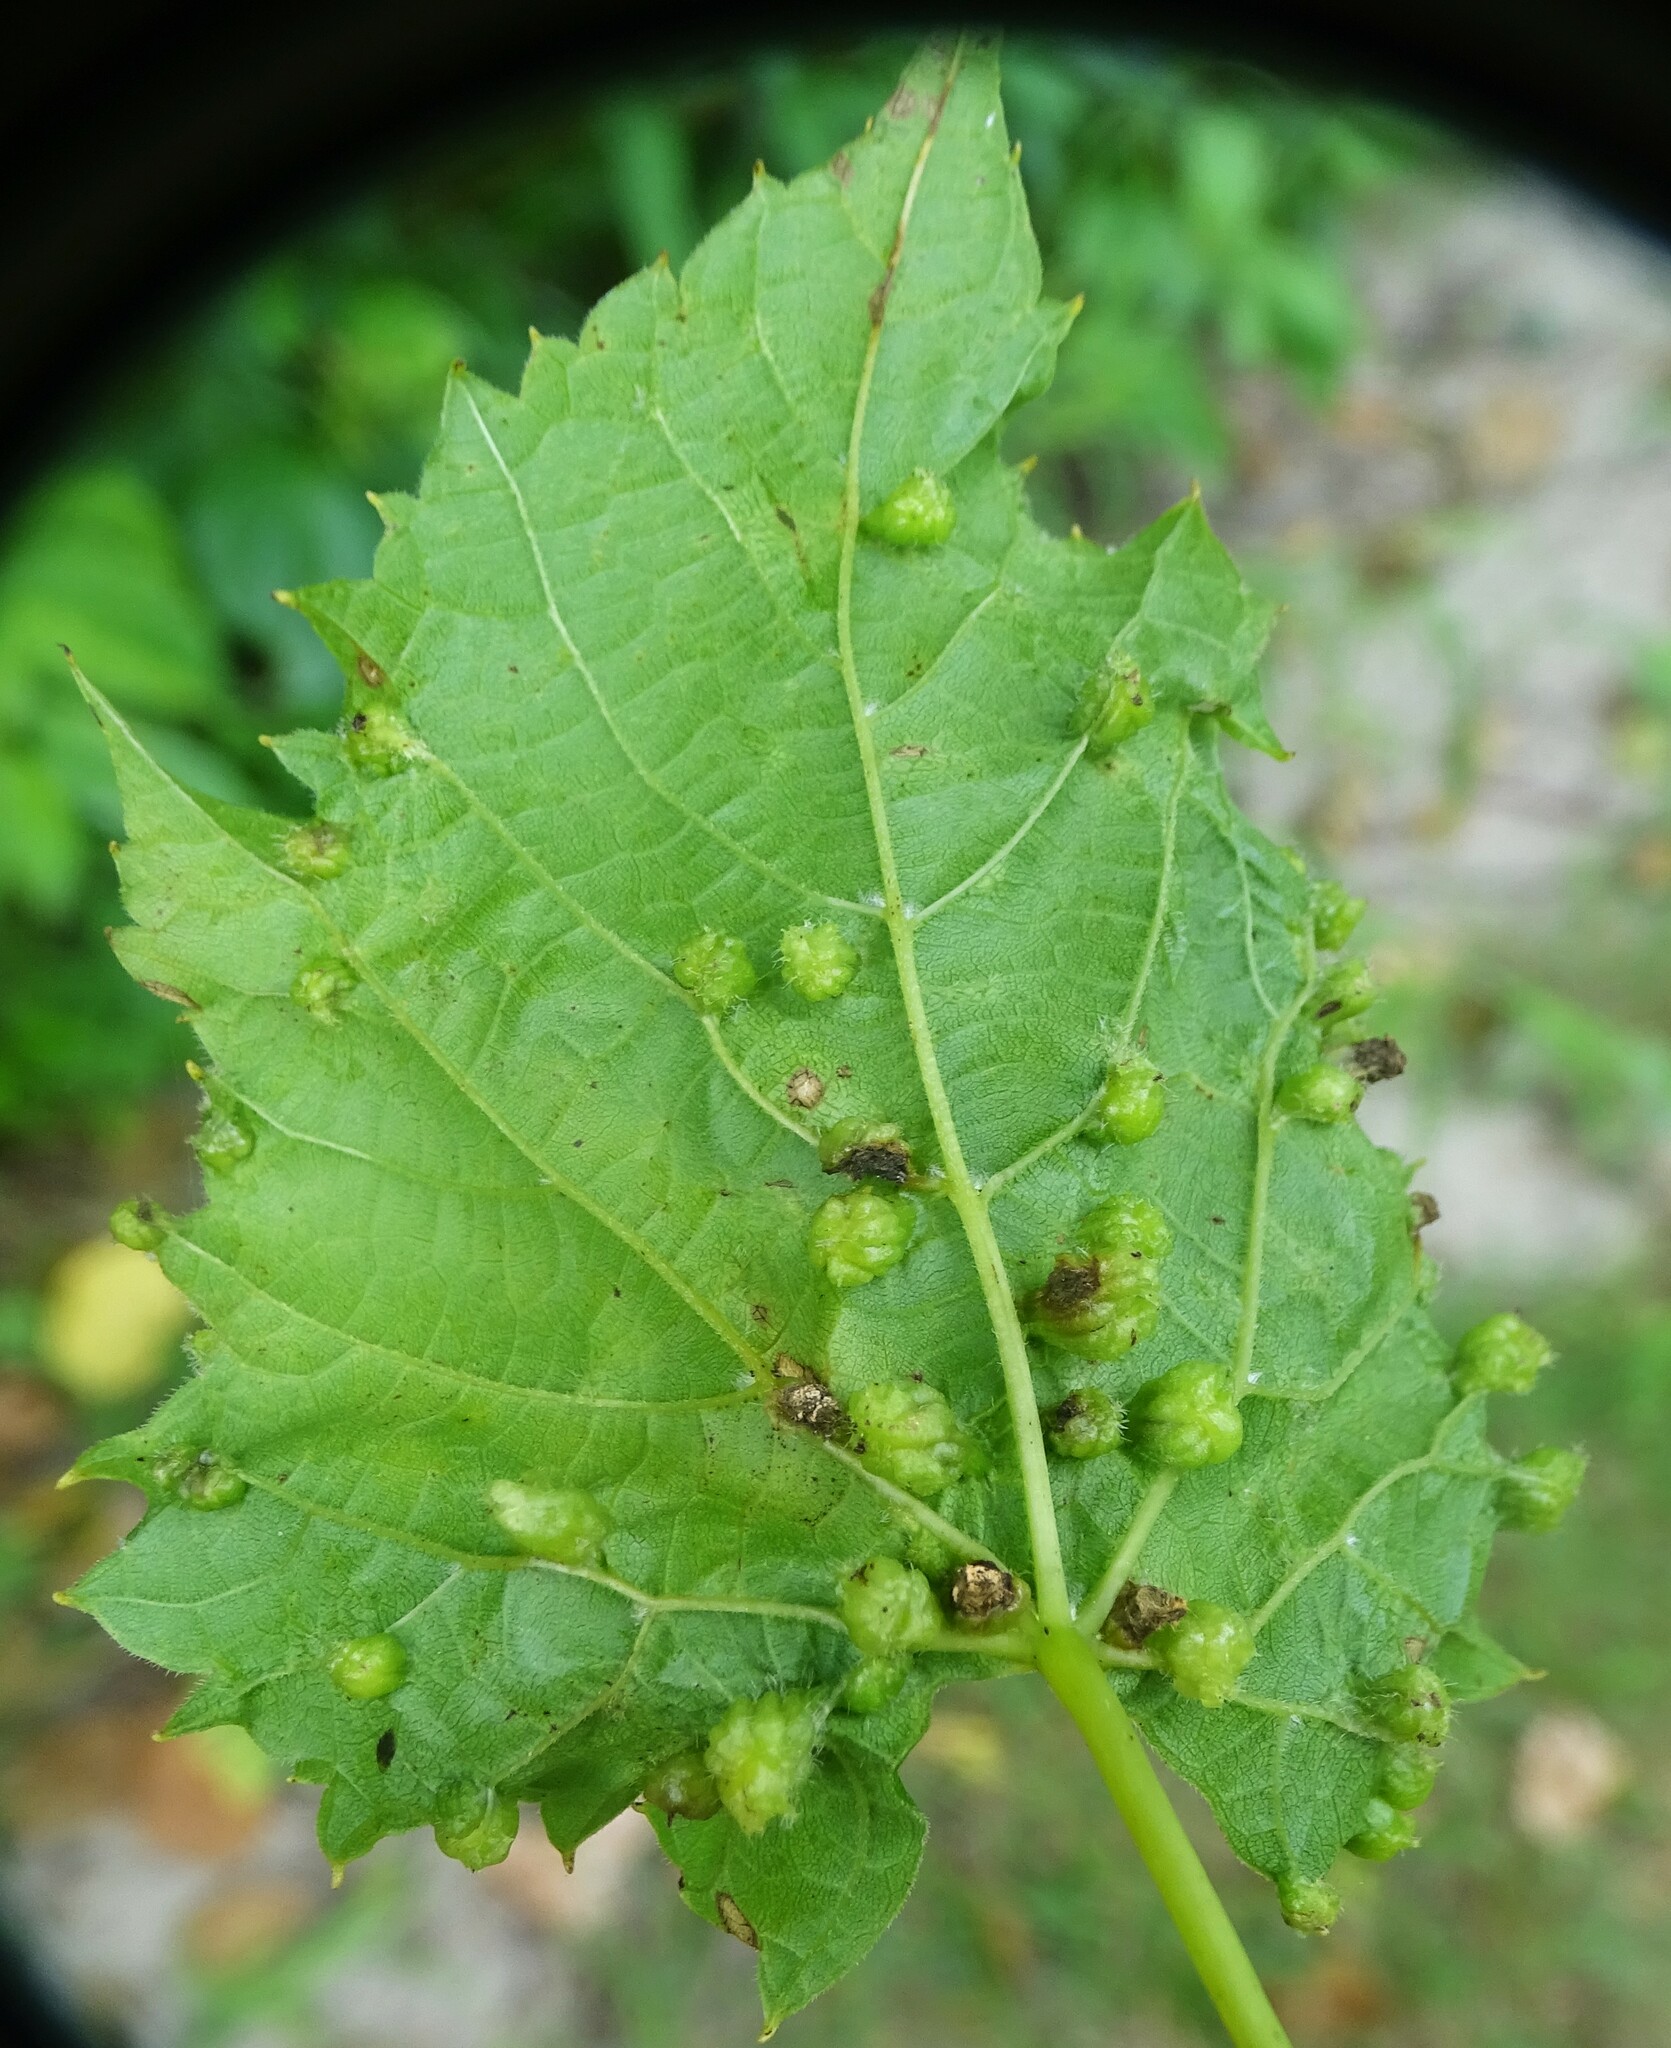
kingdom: Animalia
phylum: Arthropoda
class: Insecta
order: Hemiptera
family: Phylloxeridae
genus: Daktulosphaira
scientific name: Daktulosphaira vitifoliae
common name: Grape phylloxera
